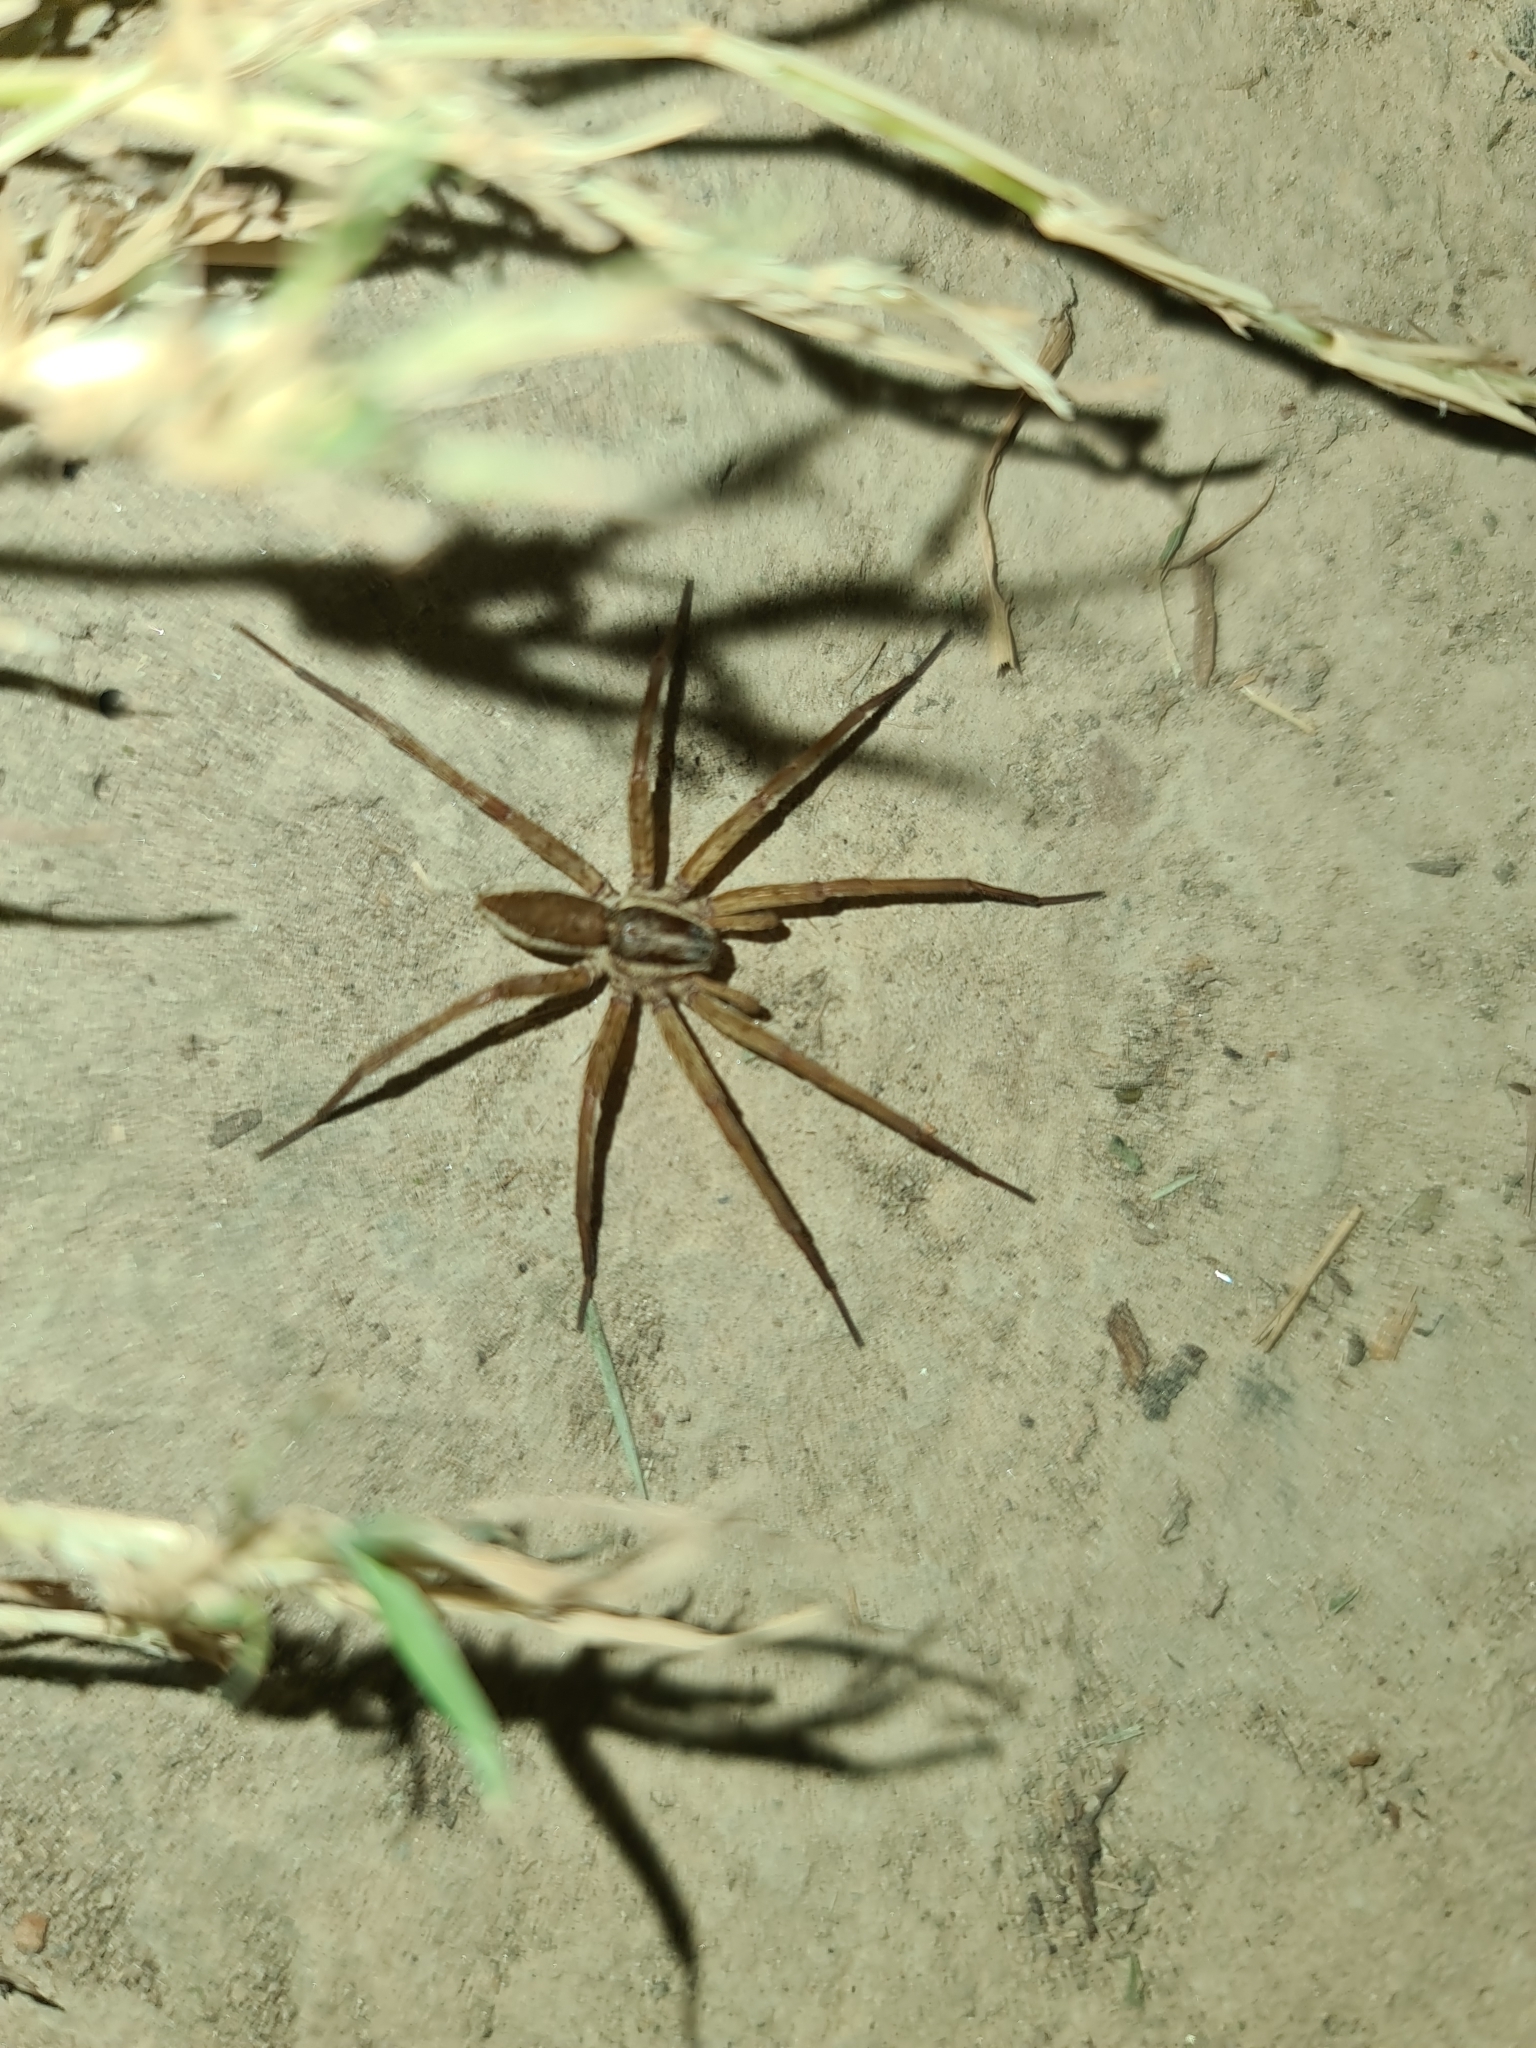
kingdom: Animalia
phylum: Arthropoda
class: Arachnida
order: Araneae
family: Pisauridae
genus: Dolomedes
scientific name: Dolomedes minor
